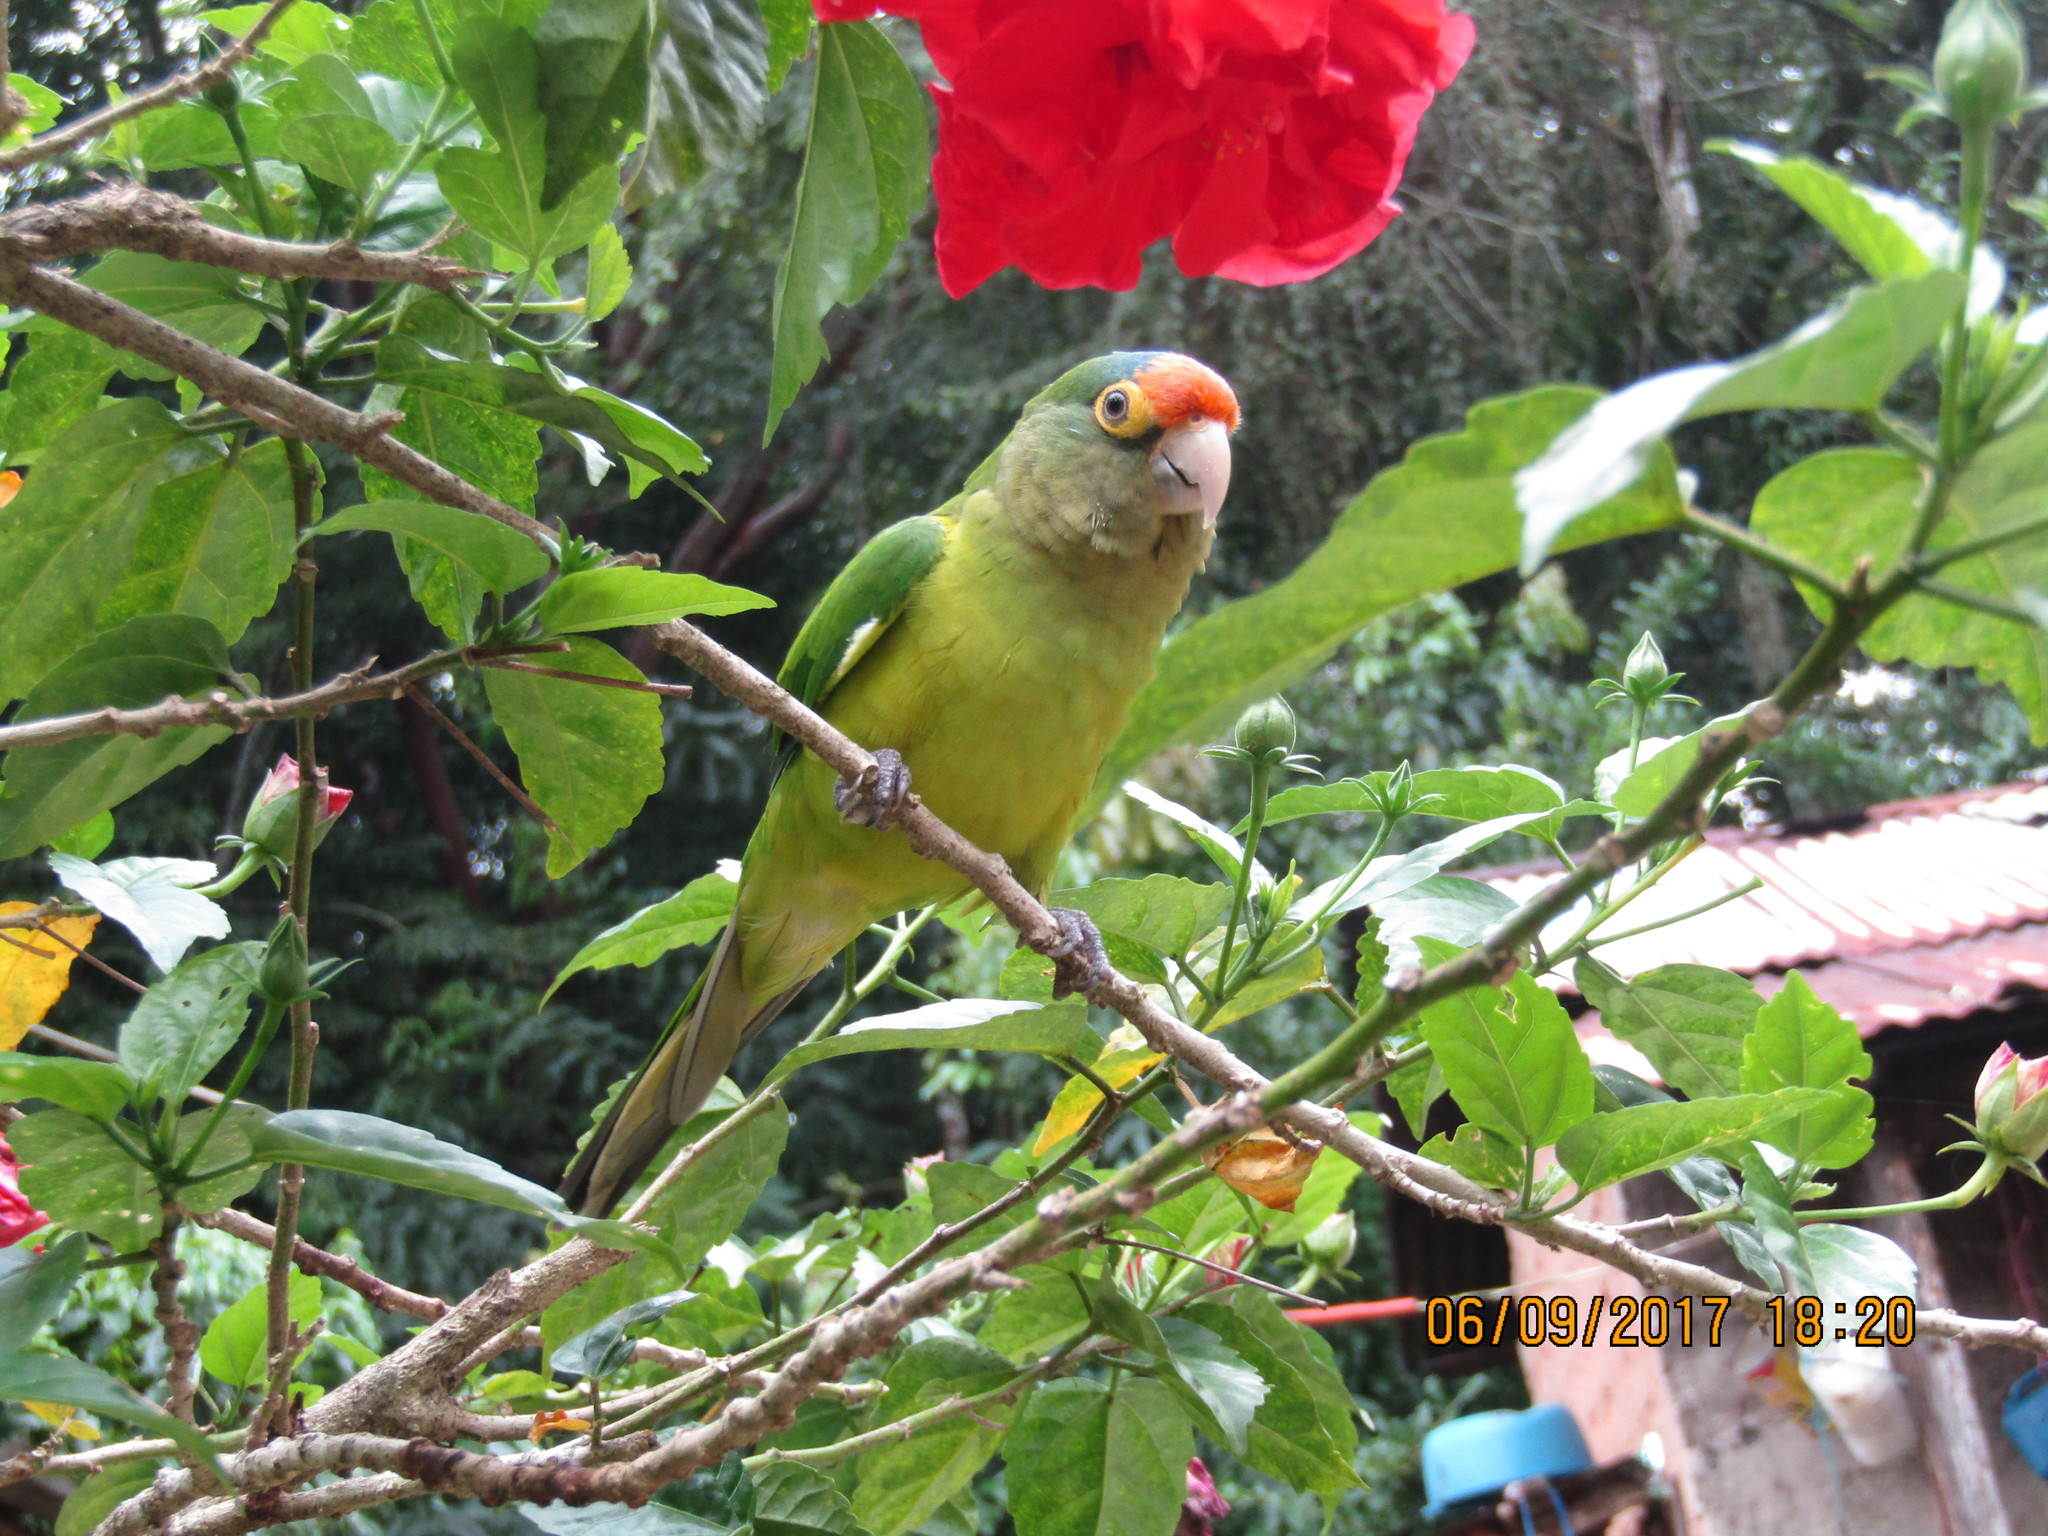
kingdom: Animalia
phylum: Chordata
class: Aves
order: Psittaciformes
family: Psittacidae
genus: Aratinga
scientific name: Aratinga canicularis
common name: Orange-fronted parakeet
